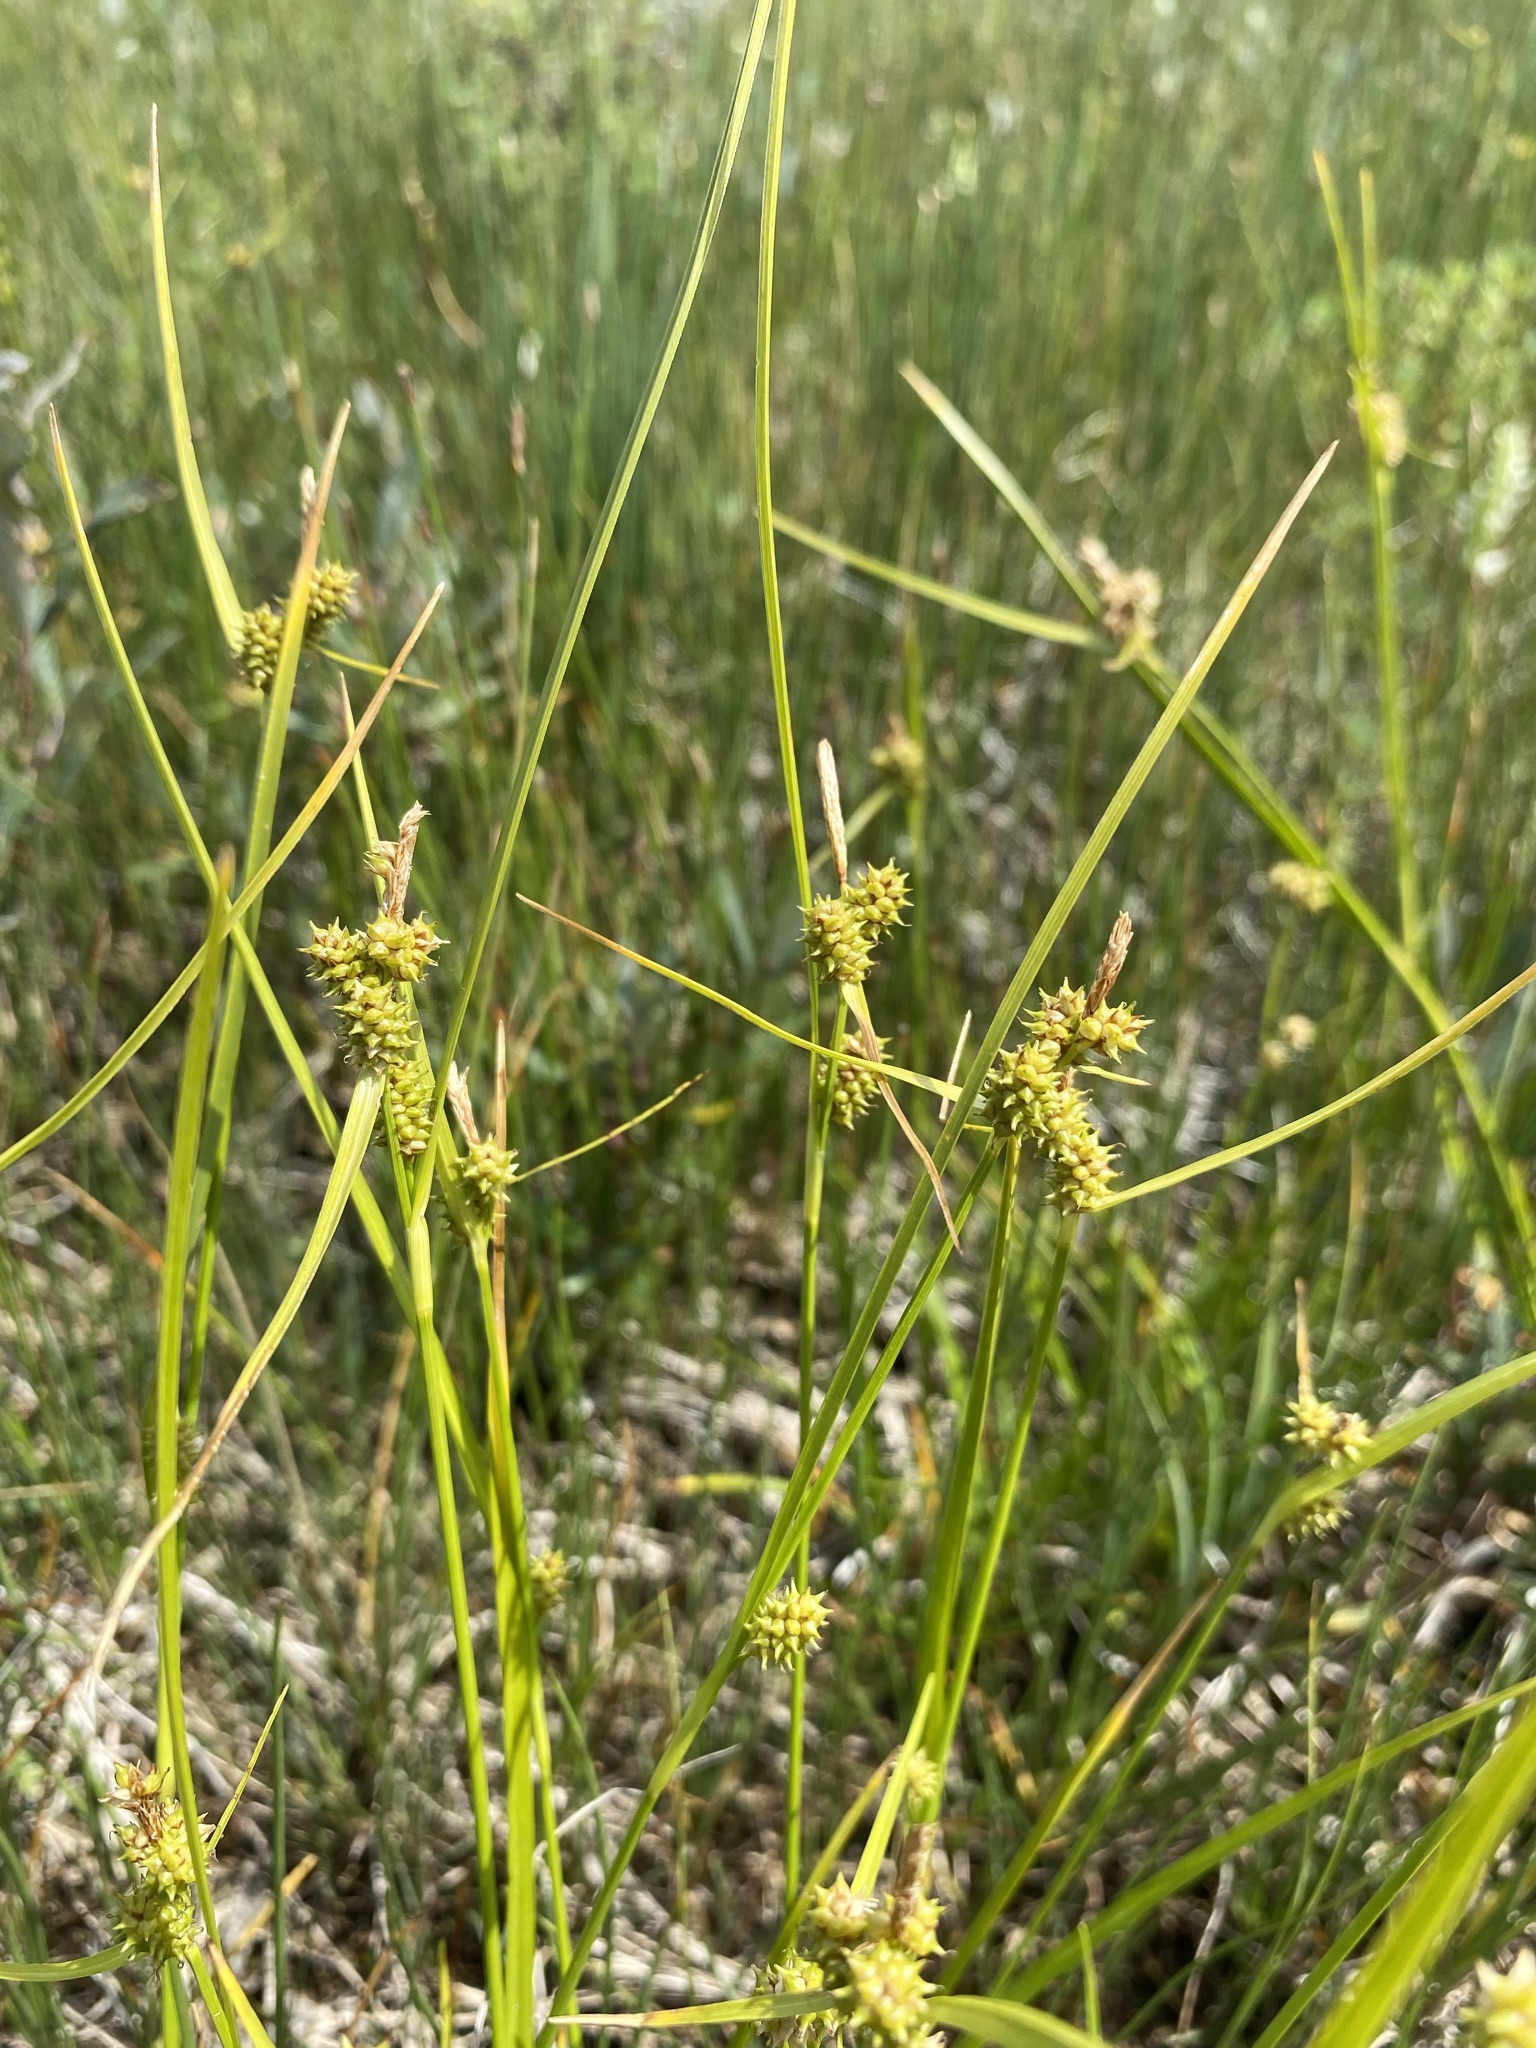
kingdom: Plantae
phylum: Tracheophyta
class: Liliopsida
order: Poales
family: Cyperaceae
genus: Carex
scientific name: Carex
